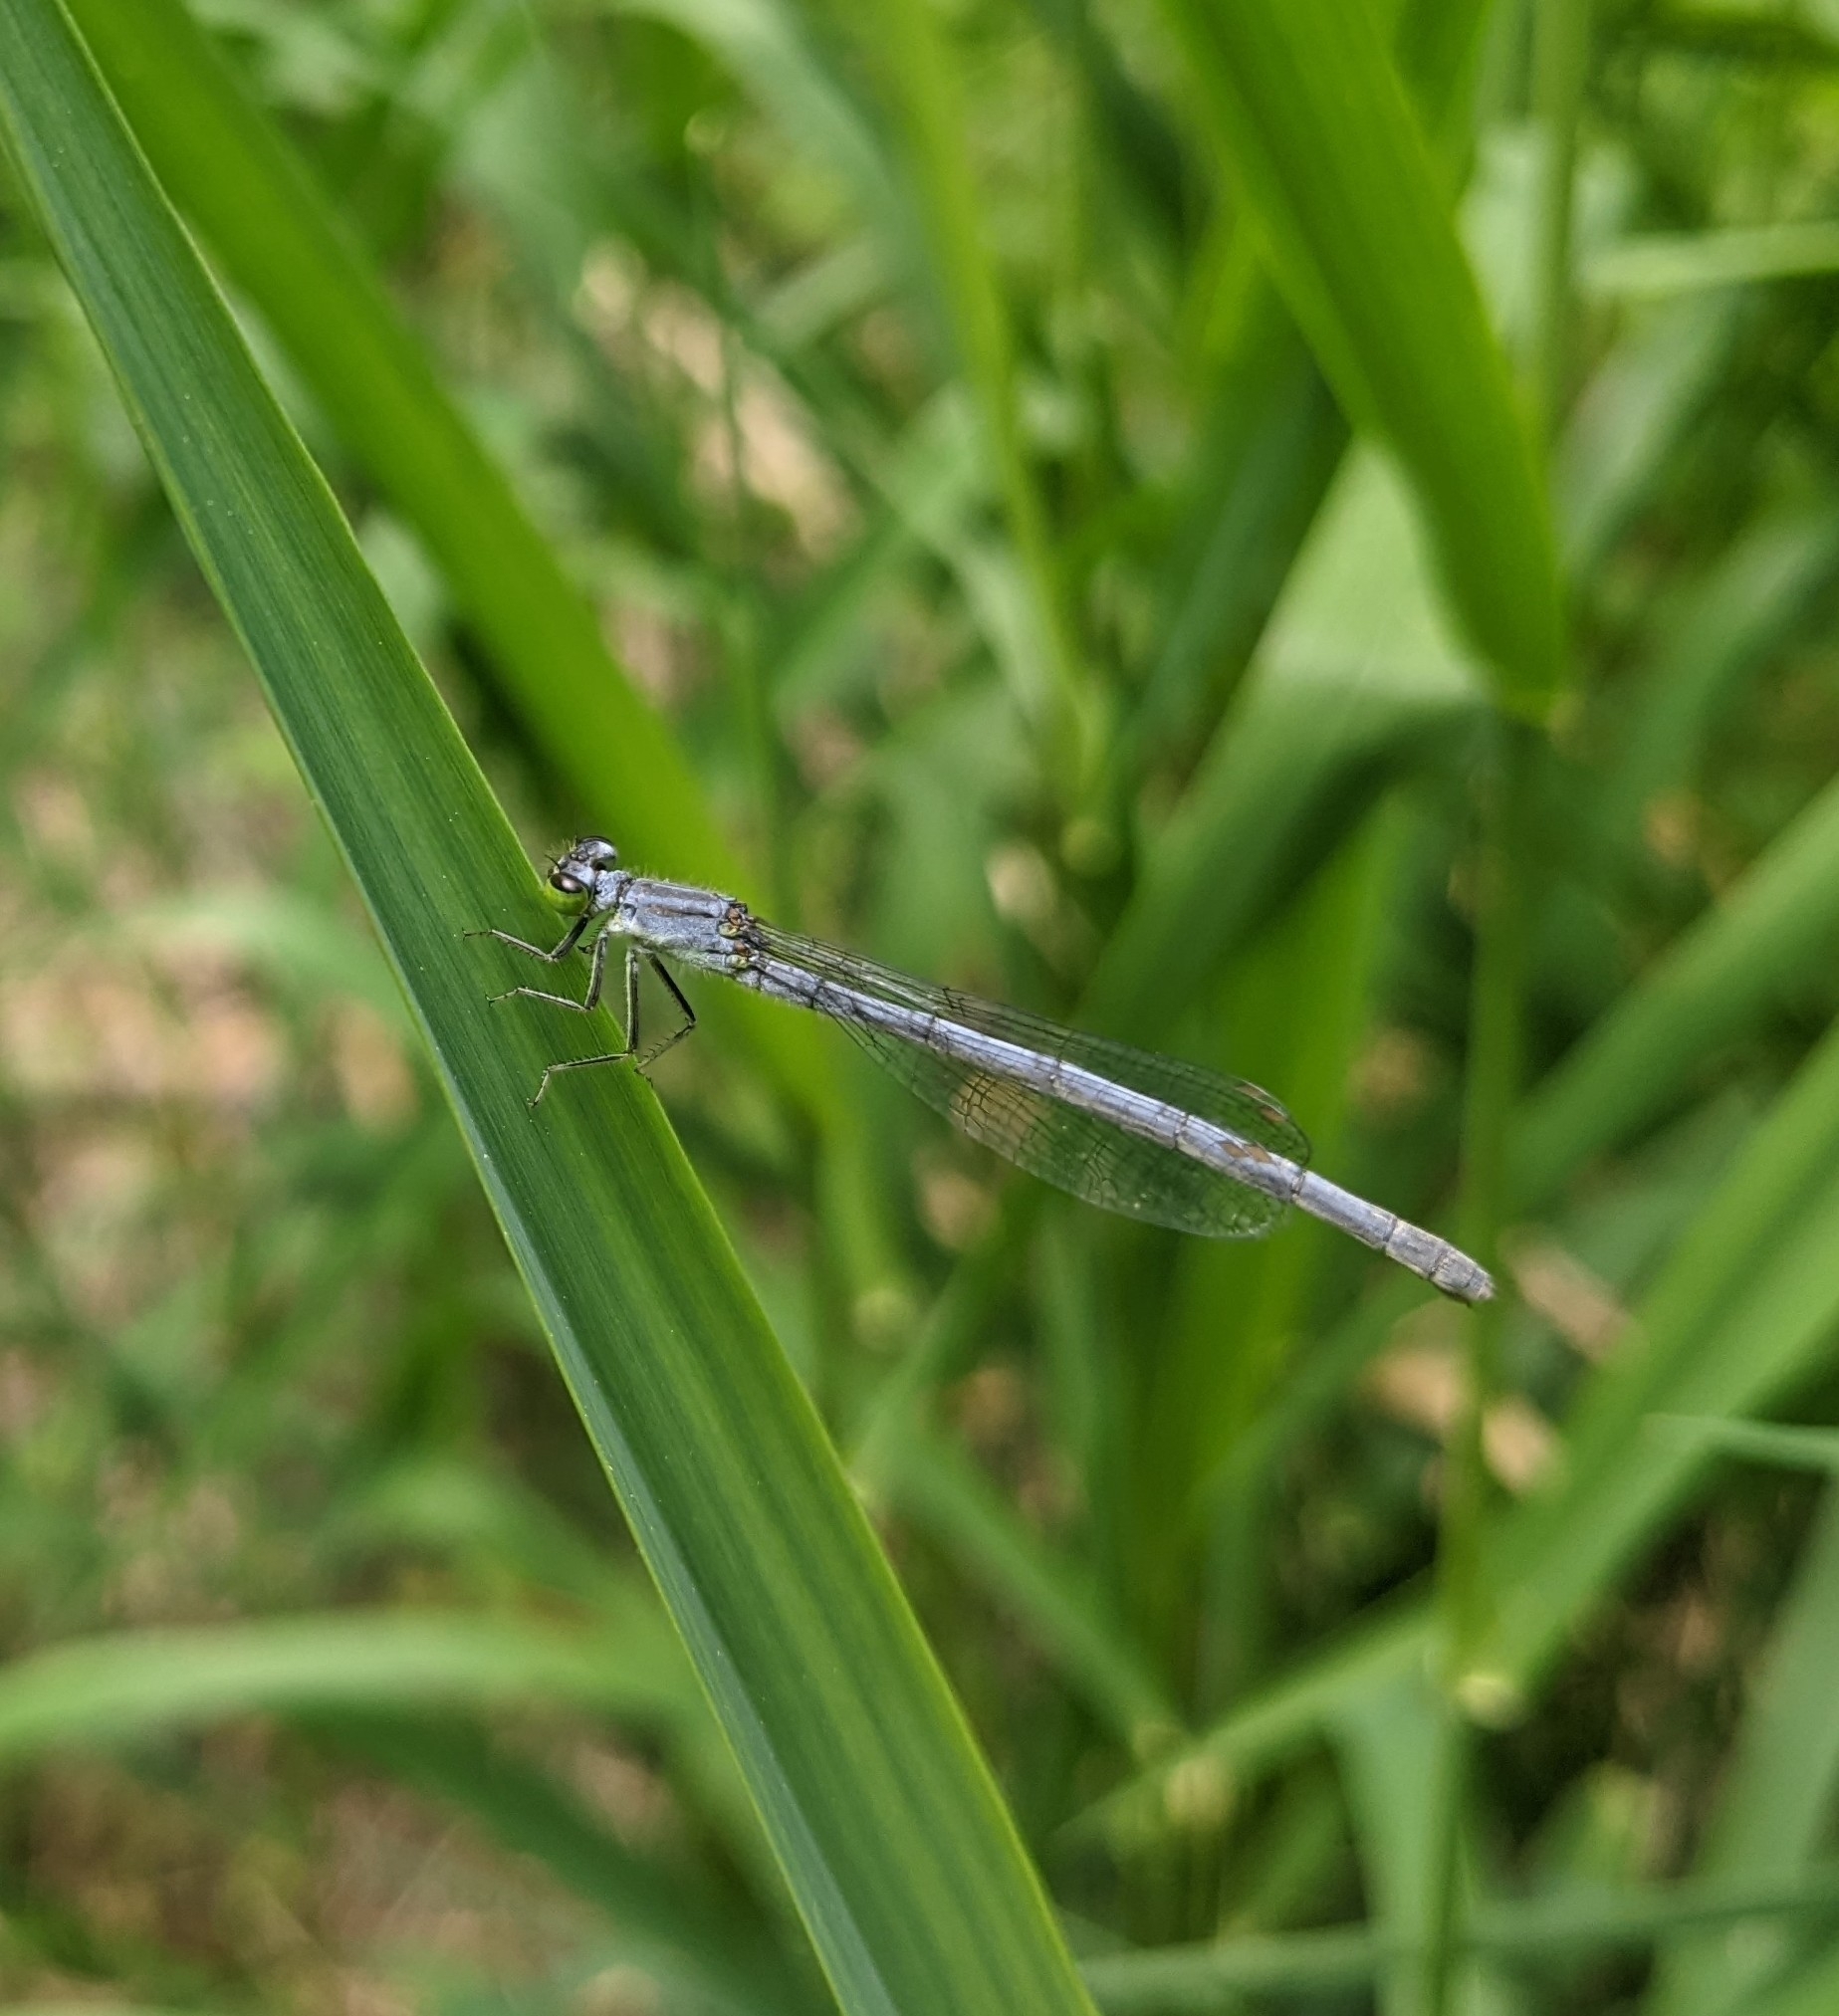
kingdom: Animalia
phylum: Arthropoda
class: Insecta
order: Odonata
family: Coenagrionidae
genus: Ischnura
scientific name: Ischnura verticalis
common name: Eastern forktail
